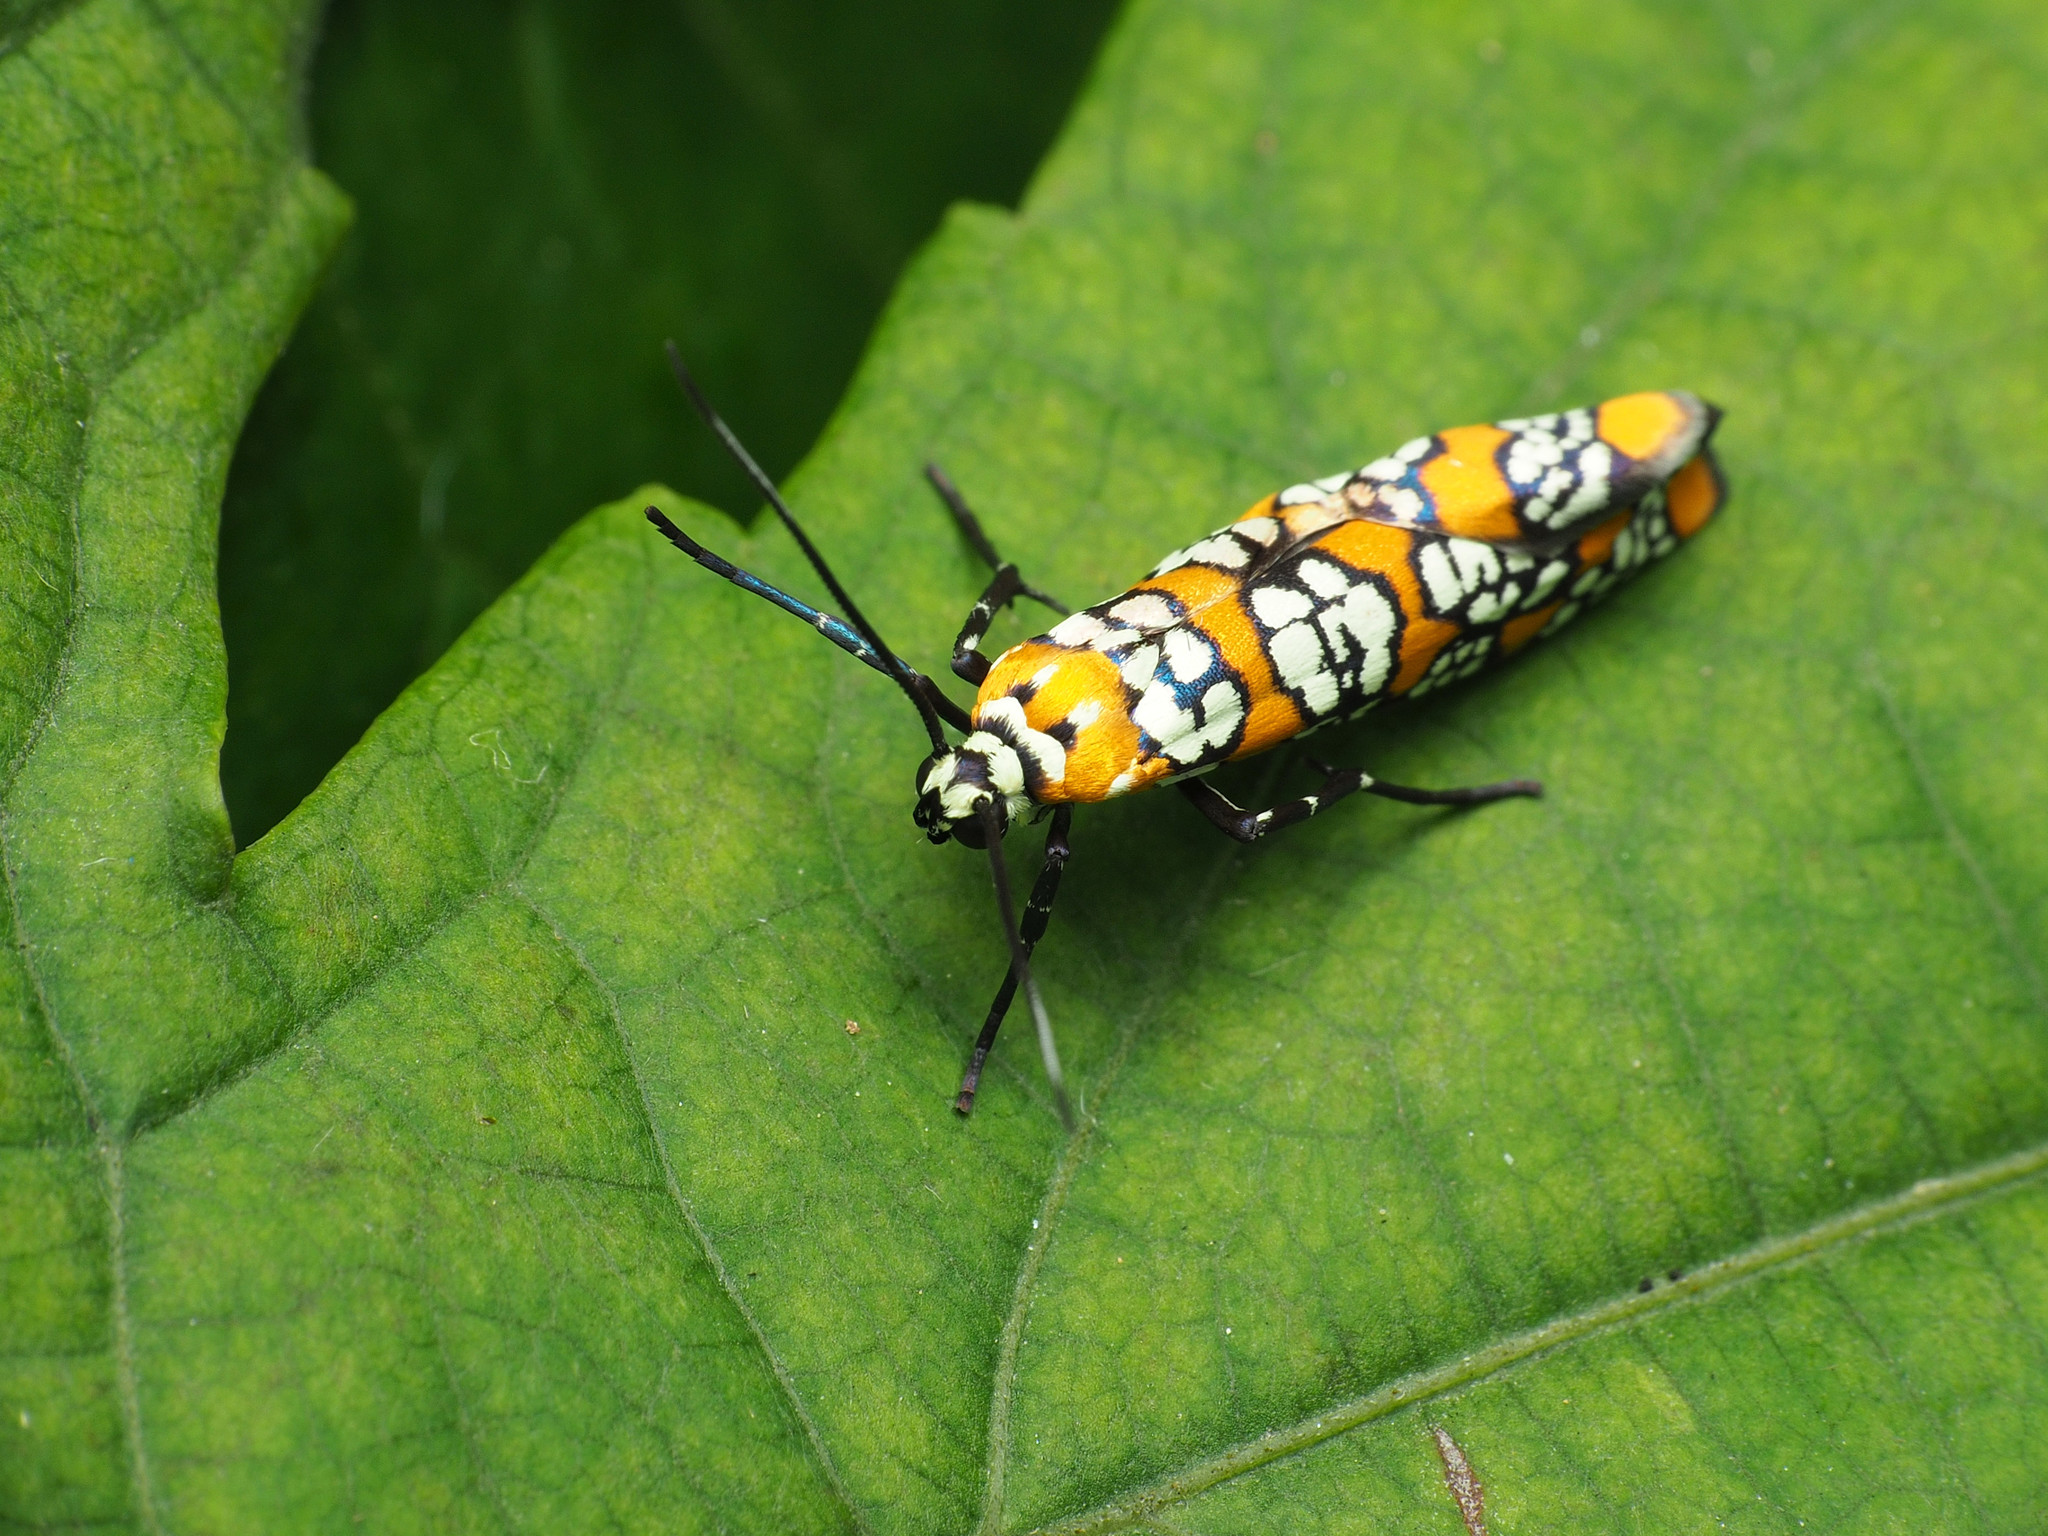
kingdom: Animalia
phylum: Arthropoda
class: Insecta
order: Lepidoptera
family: Attevidae
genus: Atteva
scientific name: Atteva punctella
